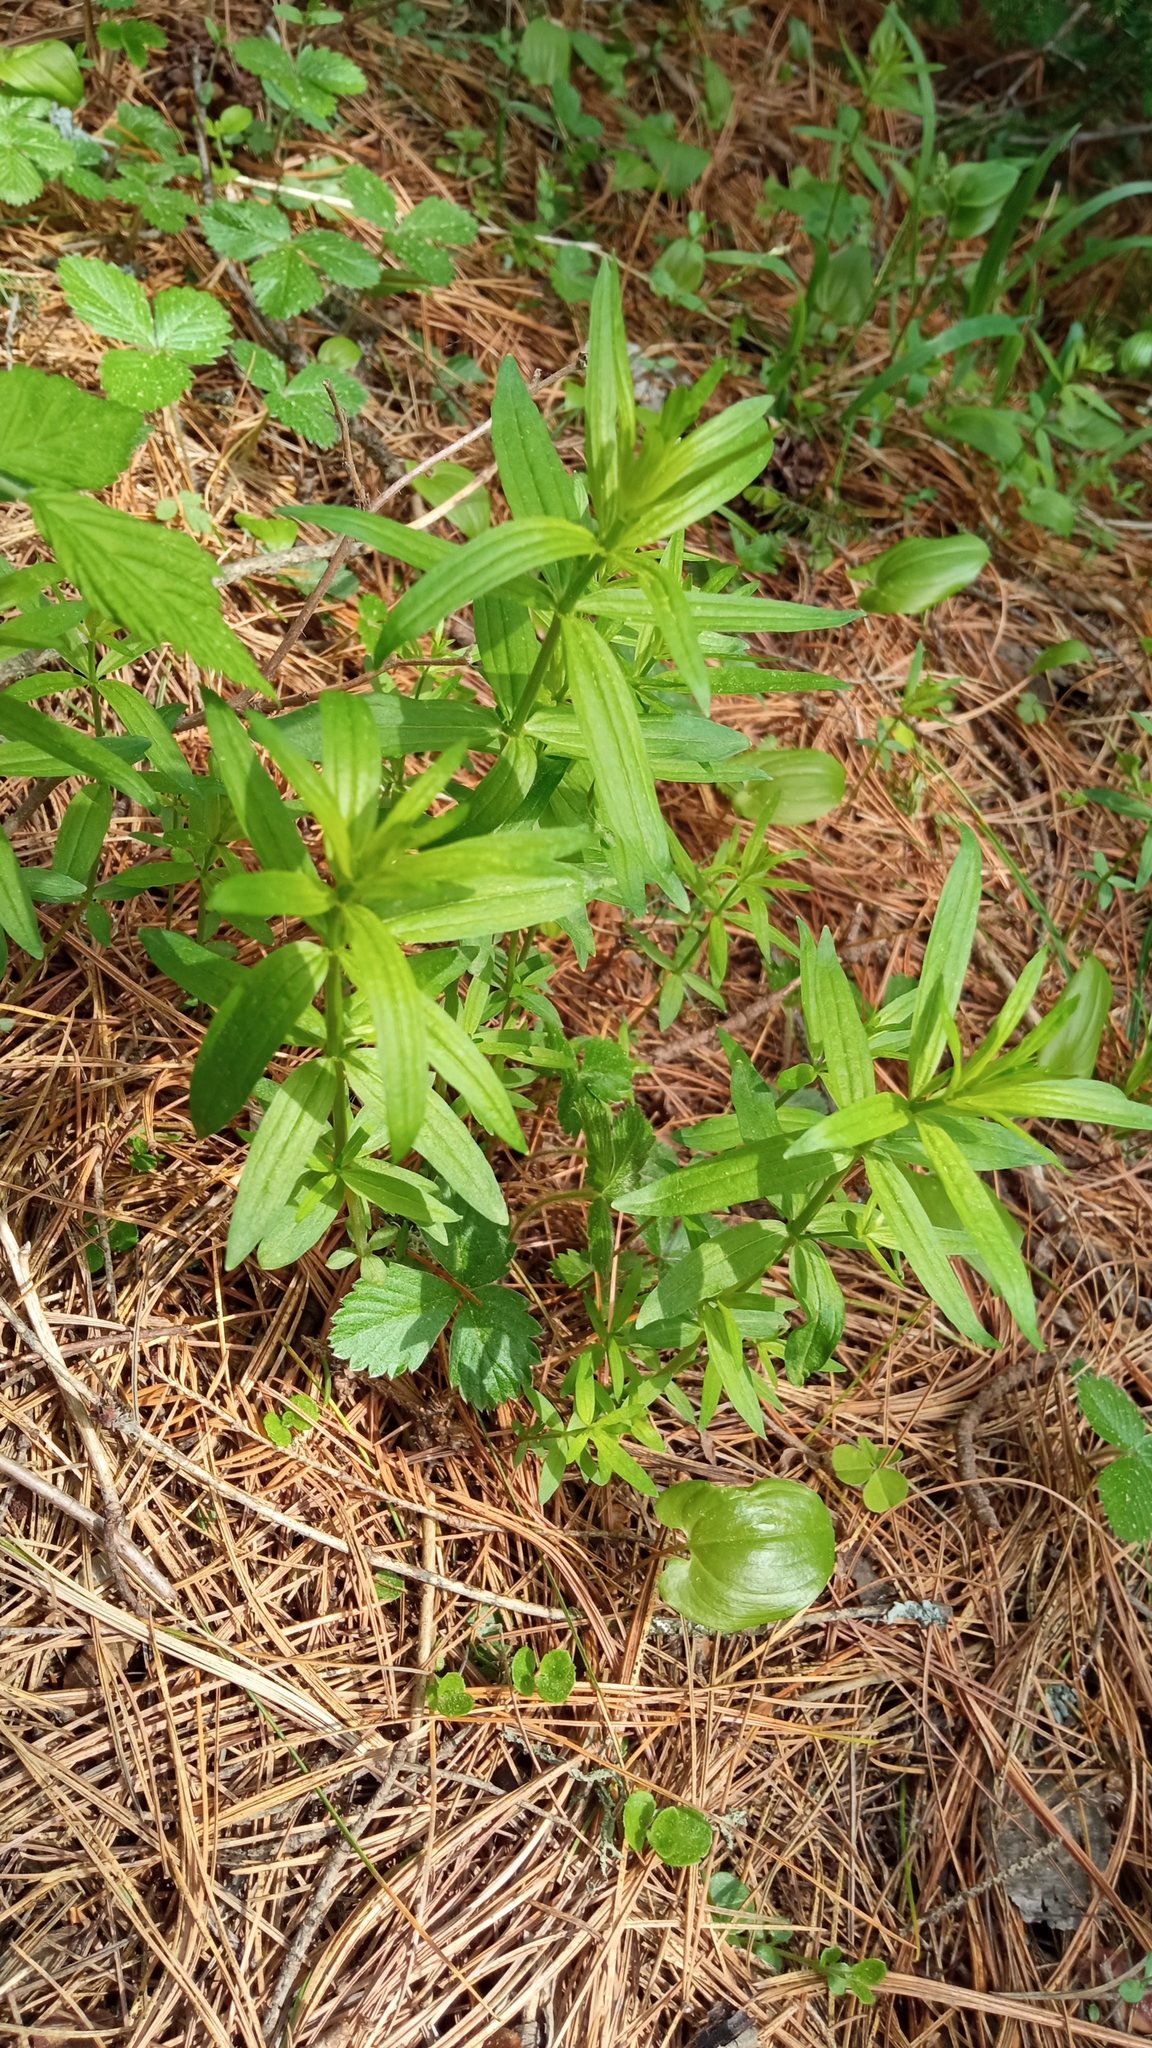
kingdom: Plantae
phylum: Tracheophyta
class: Magnoliopsida
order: Gentianales
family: Rubiaceae
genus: Galium
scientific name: Galium boreale
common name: Northern bedstraw
